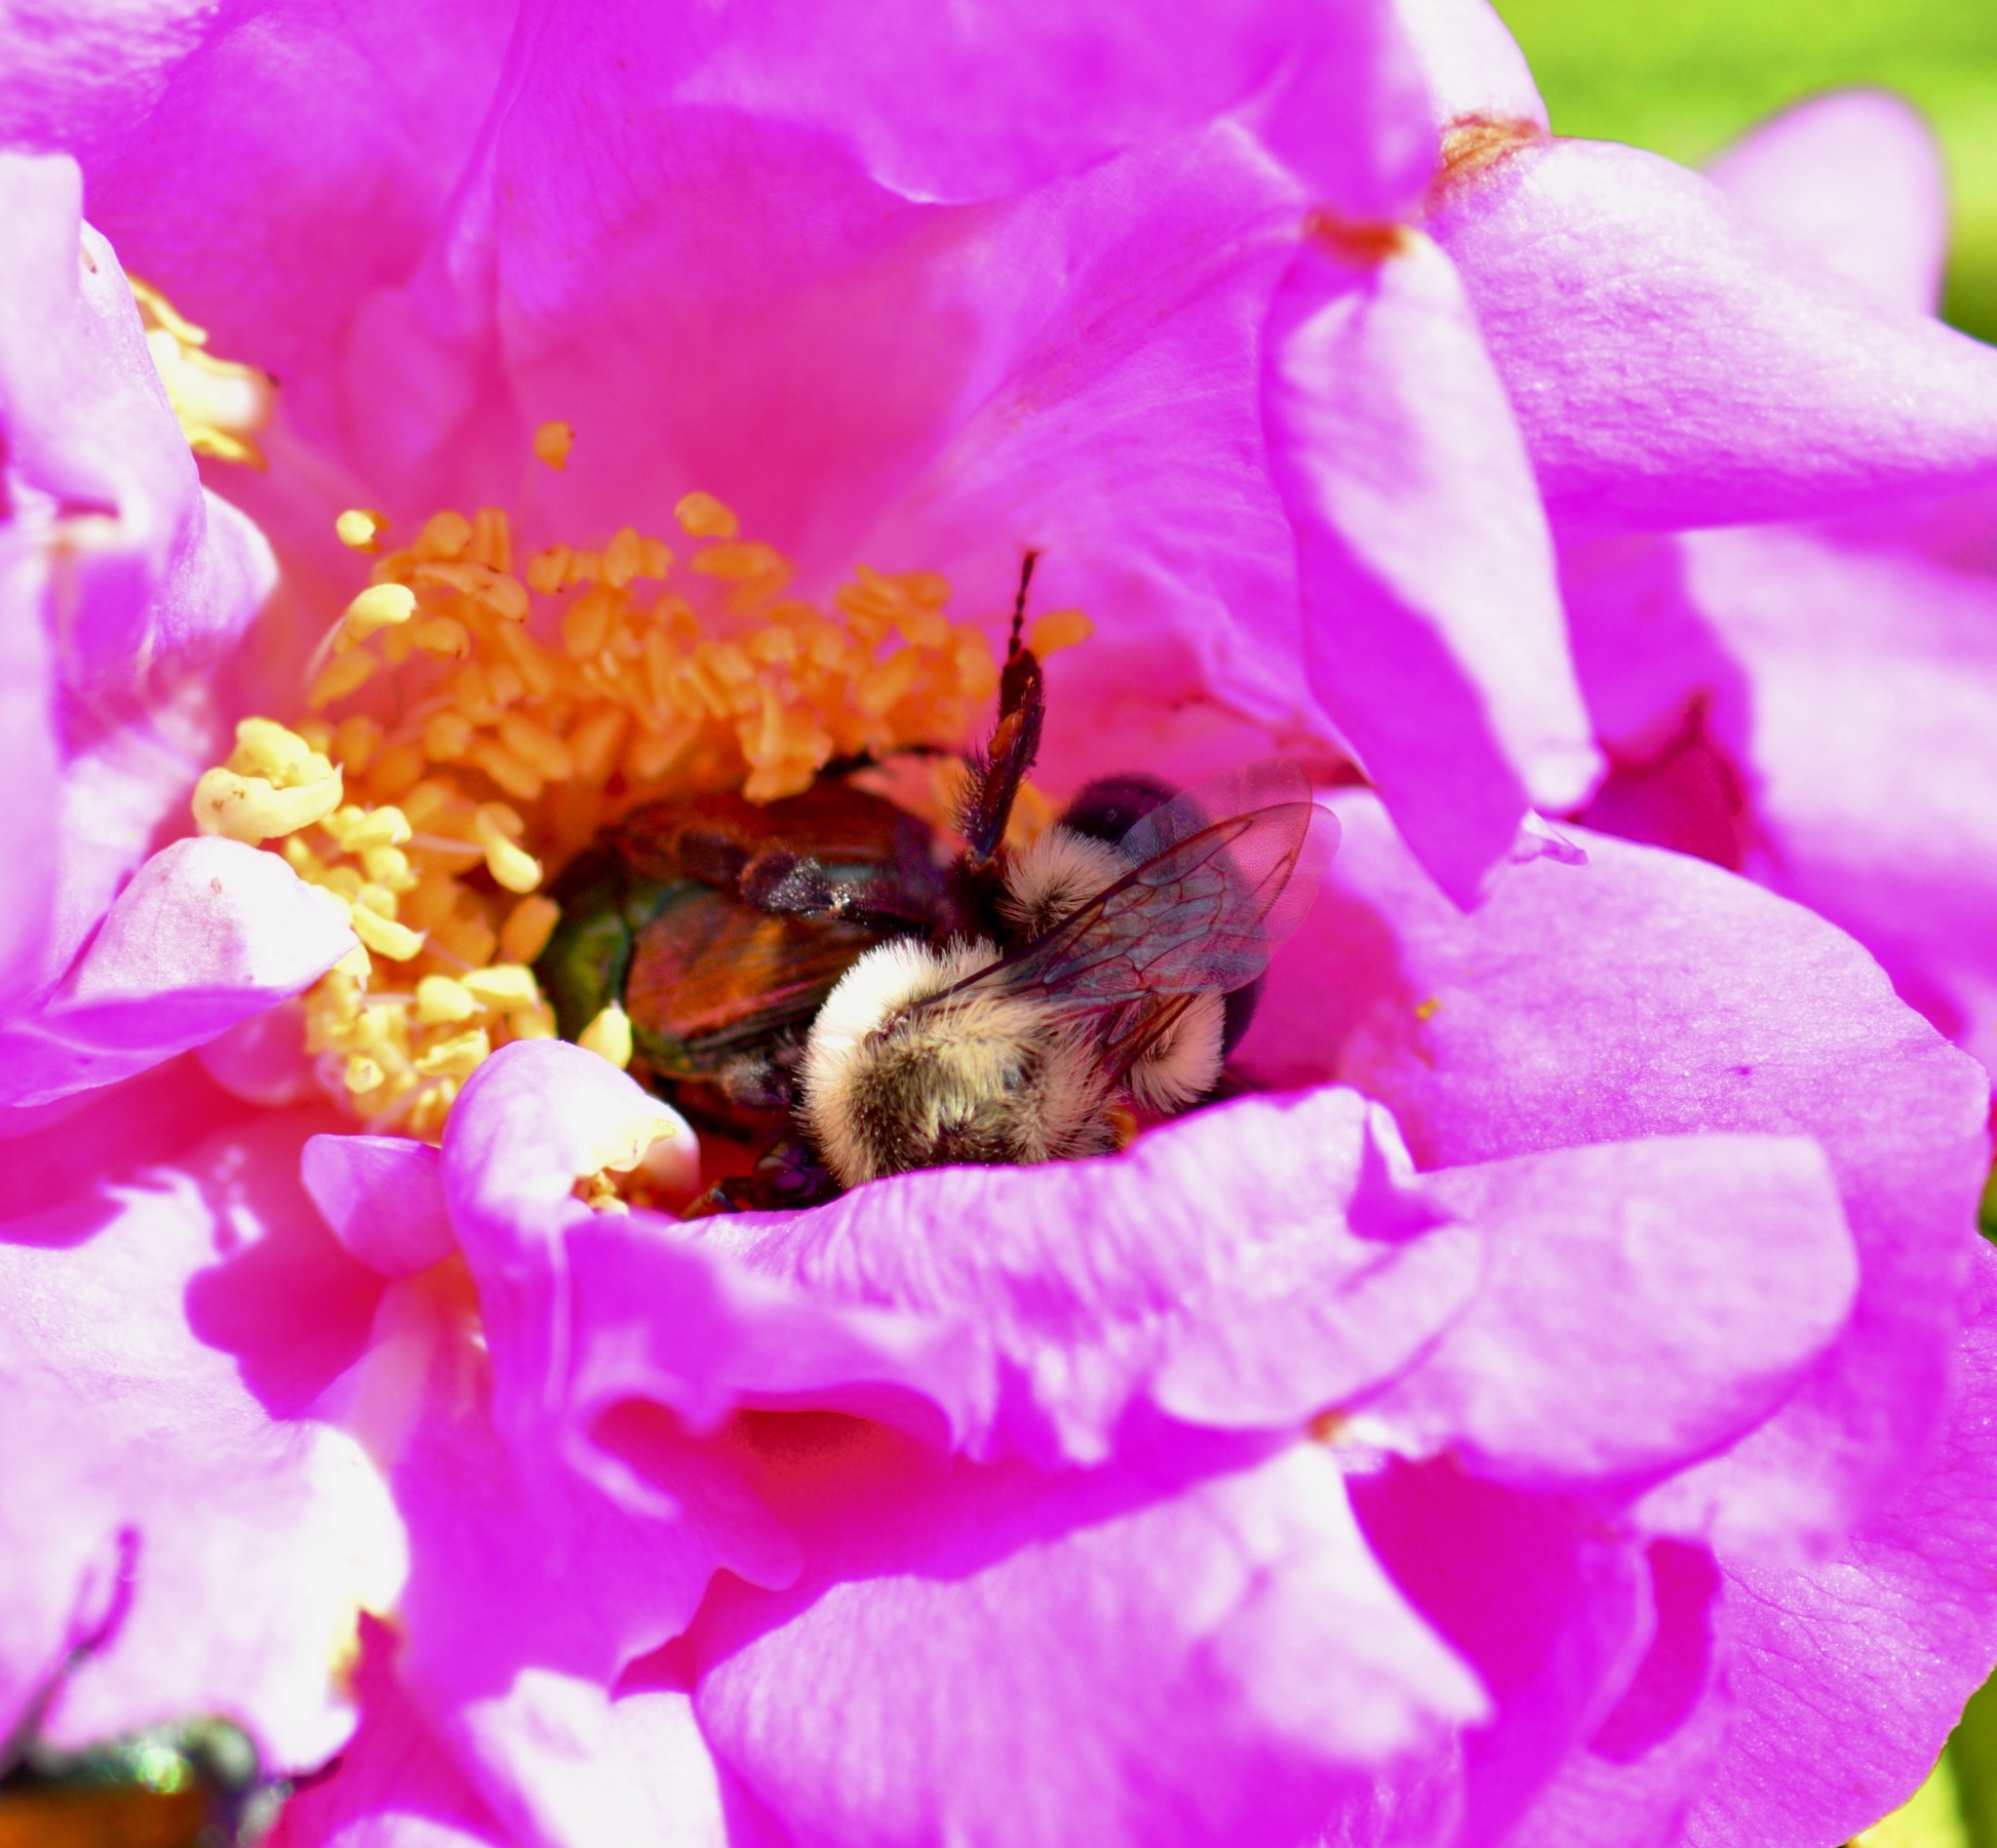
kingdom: Animalia
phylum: Arthropoda
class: Insecta
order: Hymenoptera
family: Apidae
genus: Bombus
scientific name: Bombus impatiens
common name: Common eastern bumble bee
